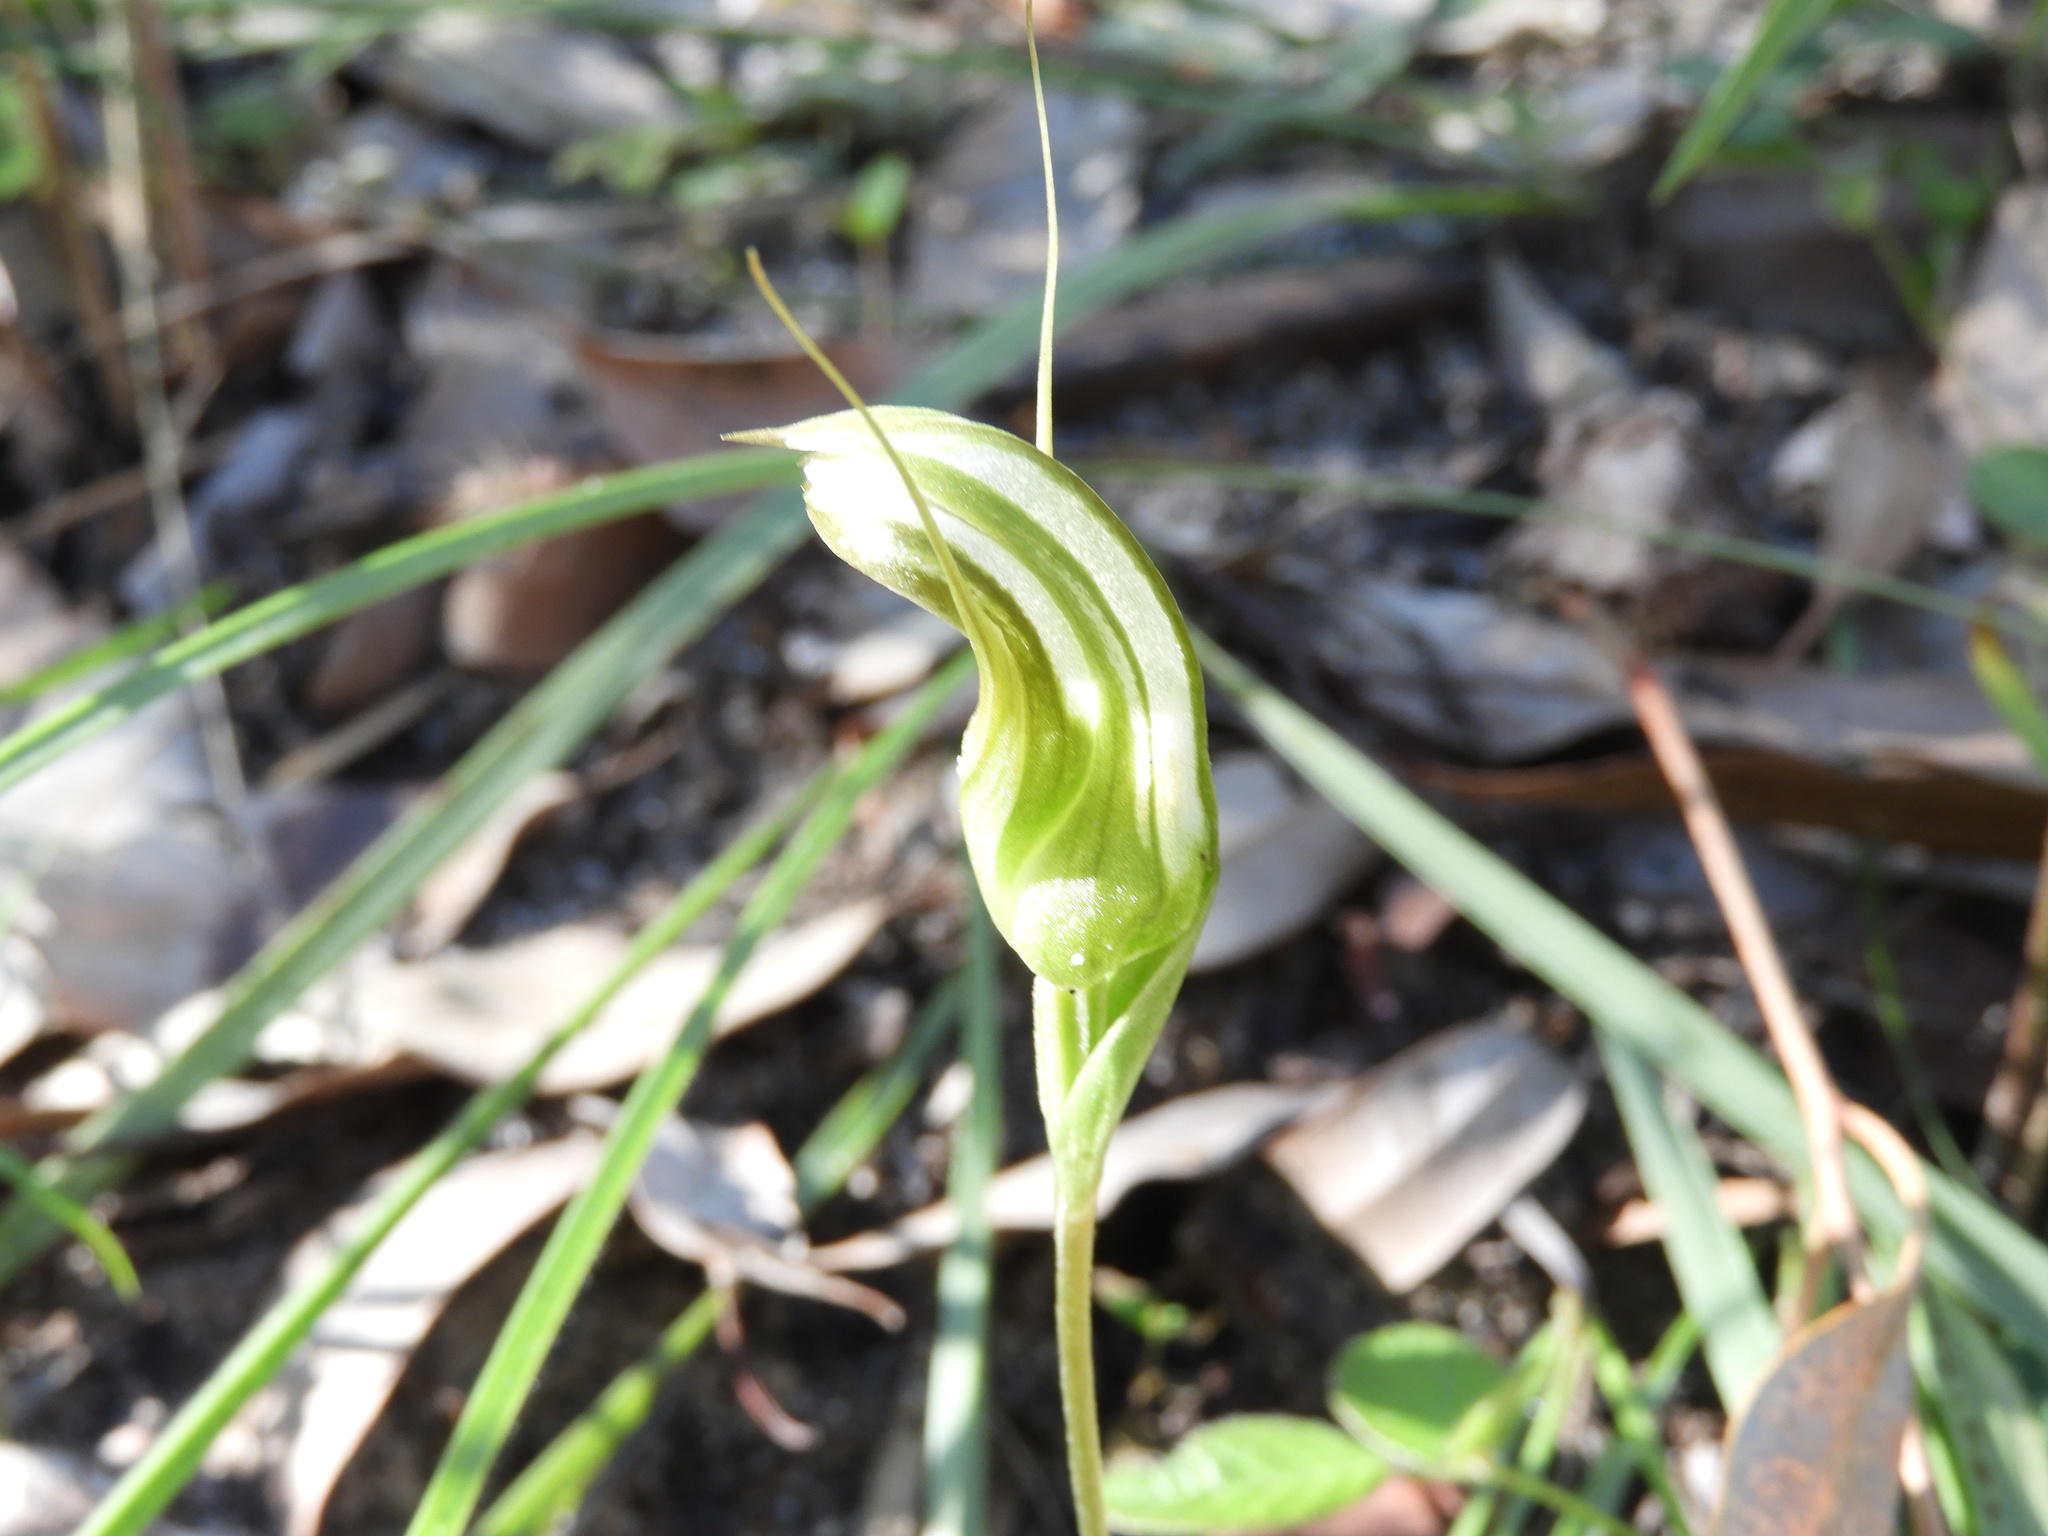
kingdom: Plantae
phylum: Tracheophyta
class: Liliopsida
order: Asparagales
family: Orchidaceae
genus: Pterostylis
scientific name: Pterostylis ophioglossa
